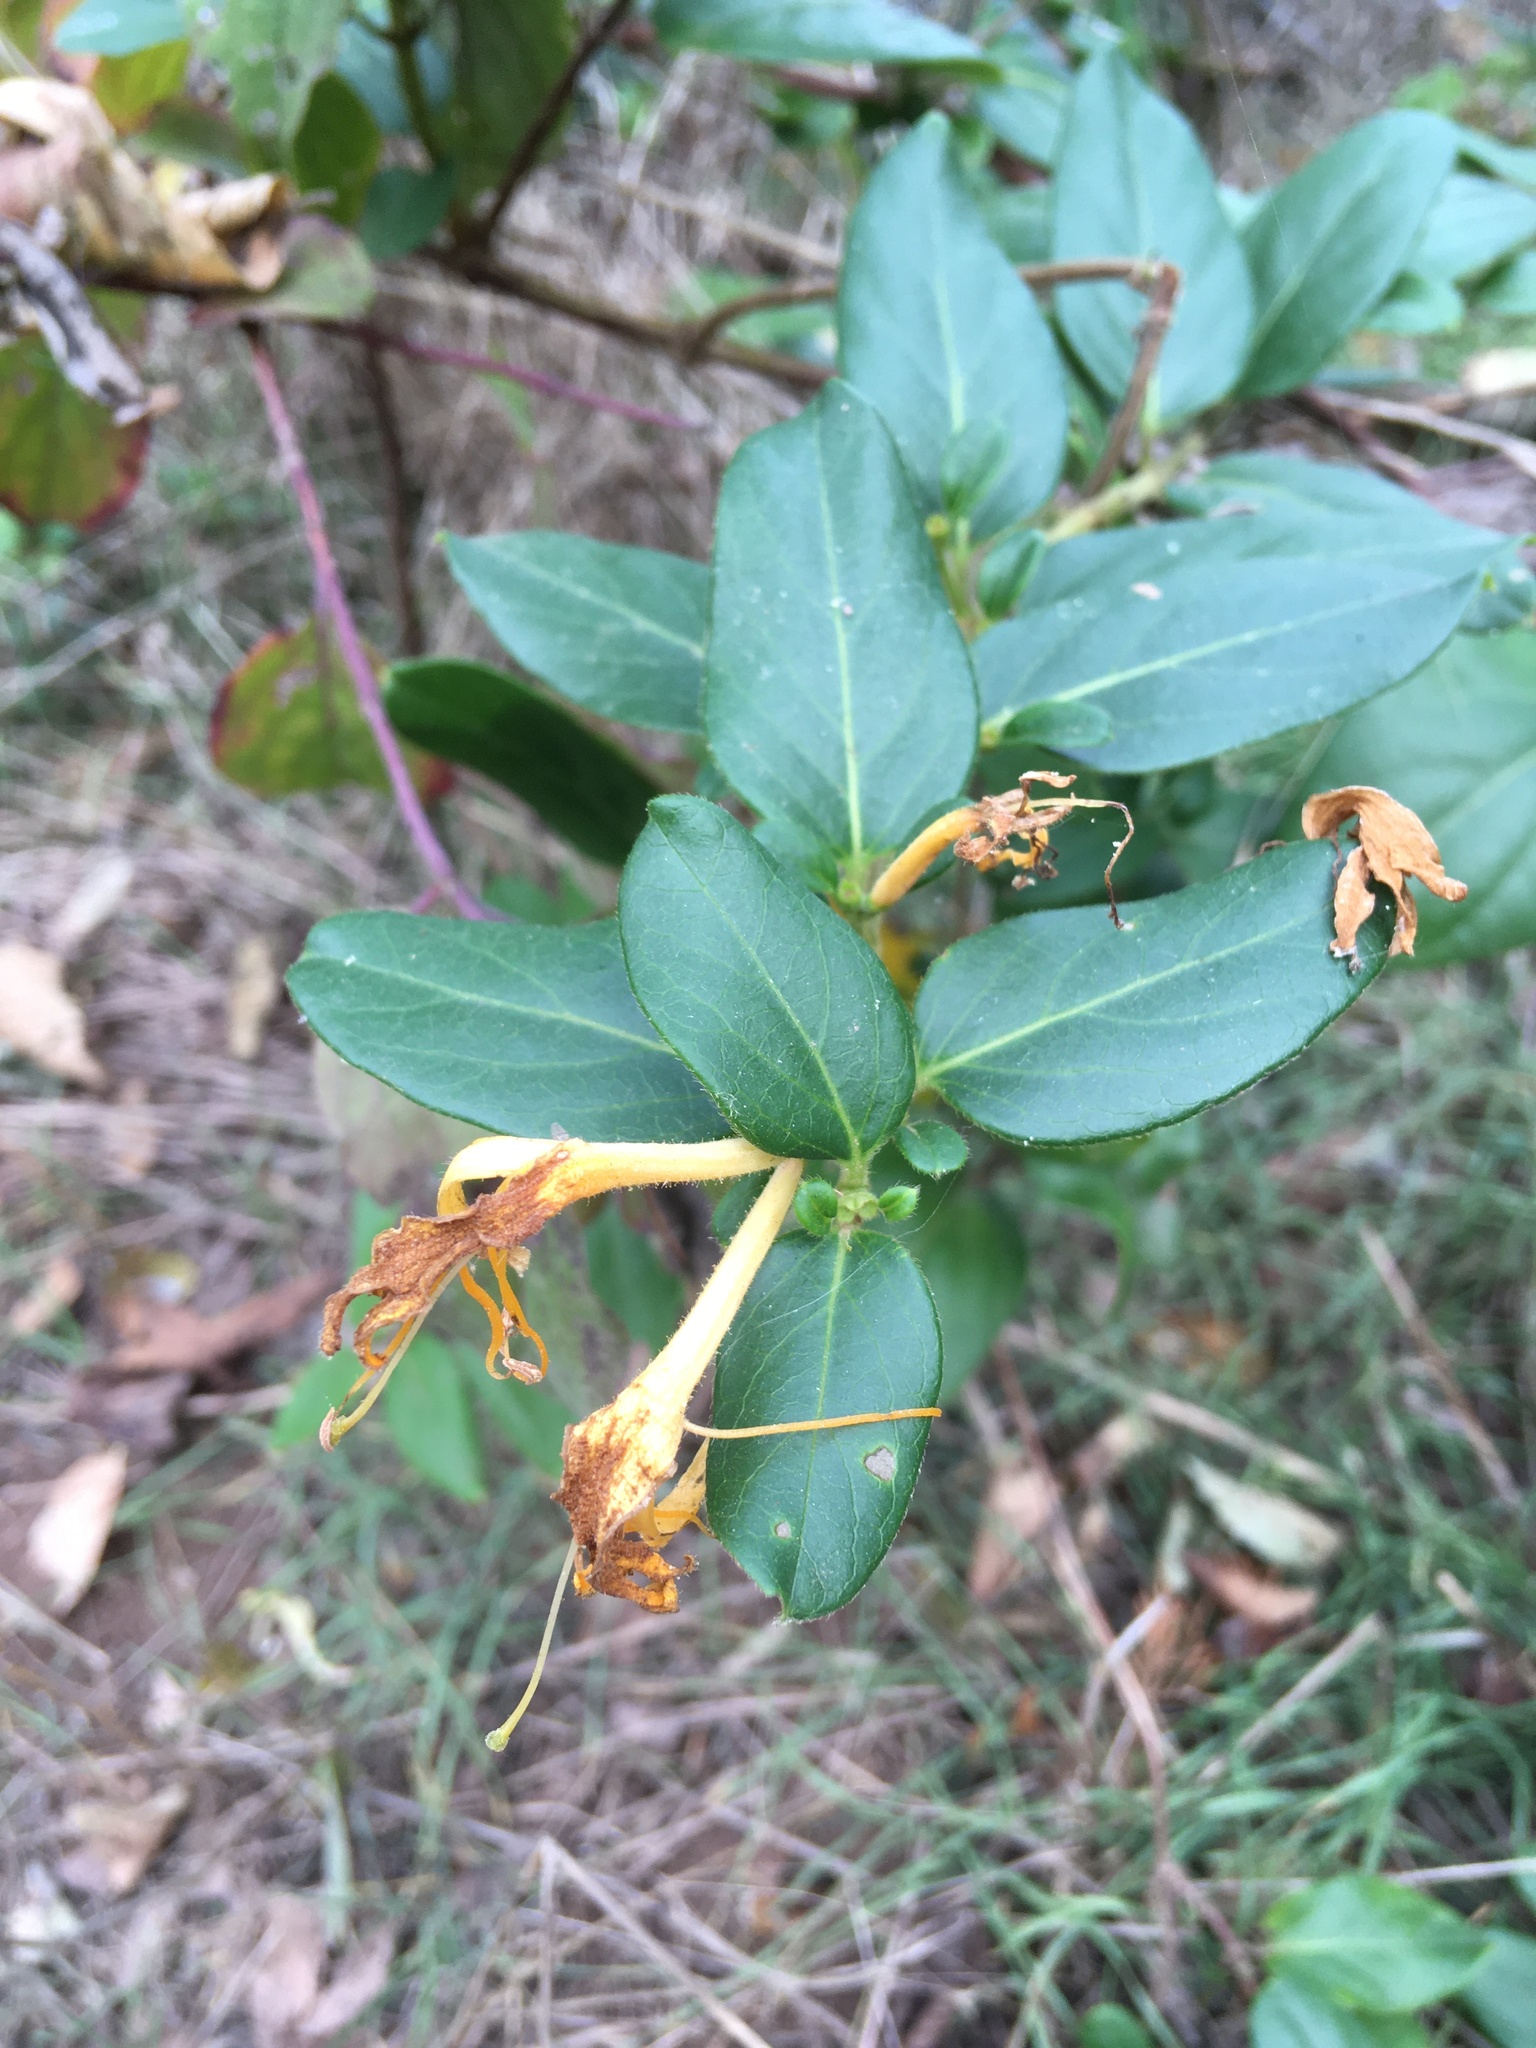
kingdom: Plantae
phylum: Tracheophyta
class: Magnoliopsida
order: Dipsacales
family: Caprifoliaceae
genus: Lonicera
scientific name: Lonicera japonica
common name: Japanese honeysuckle
